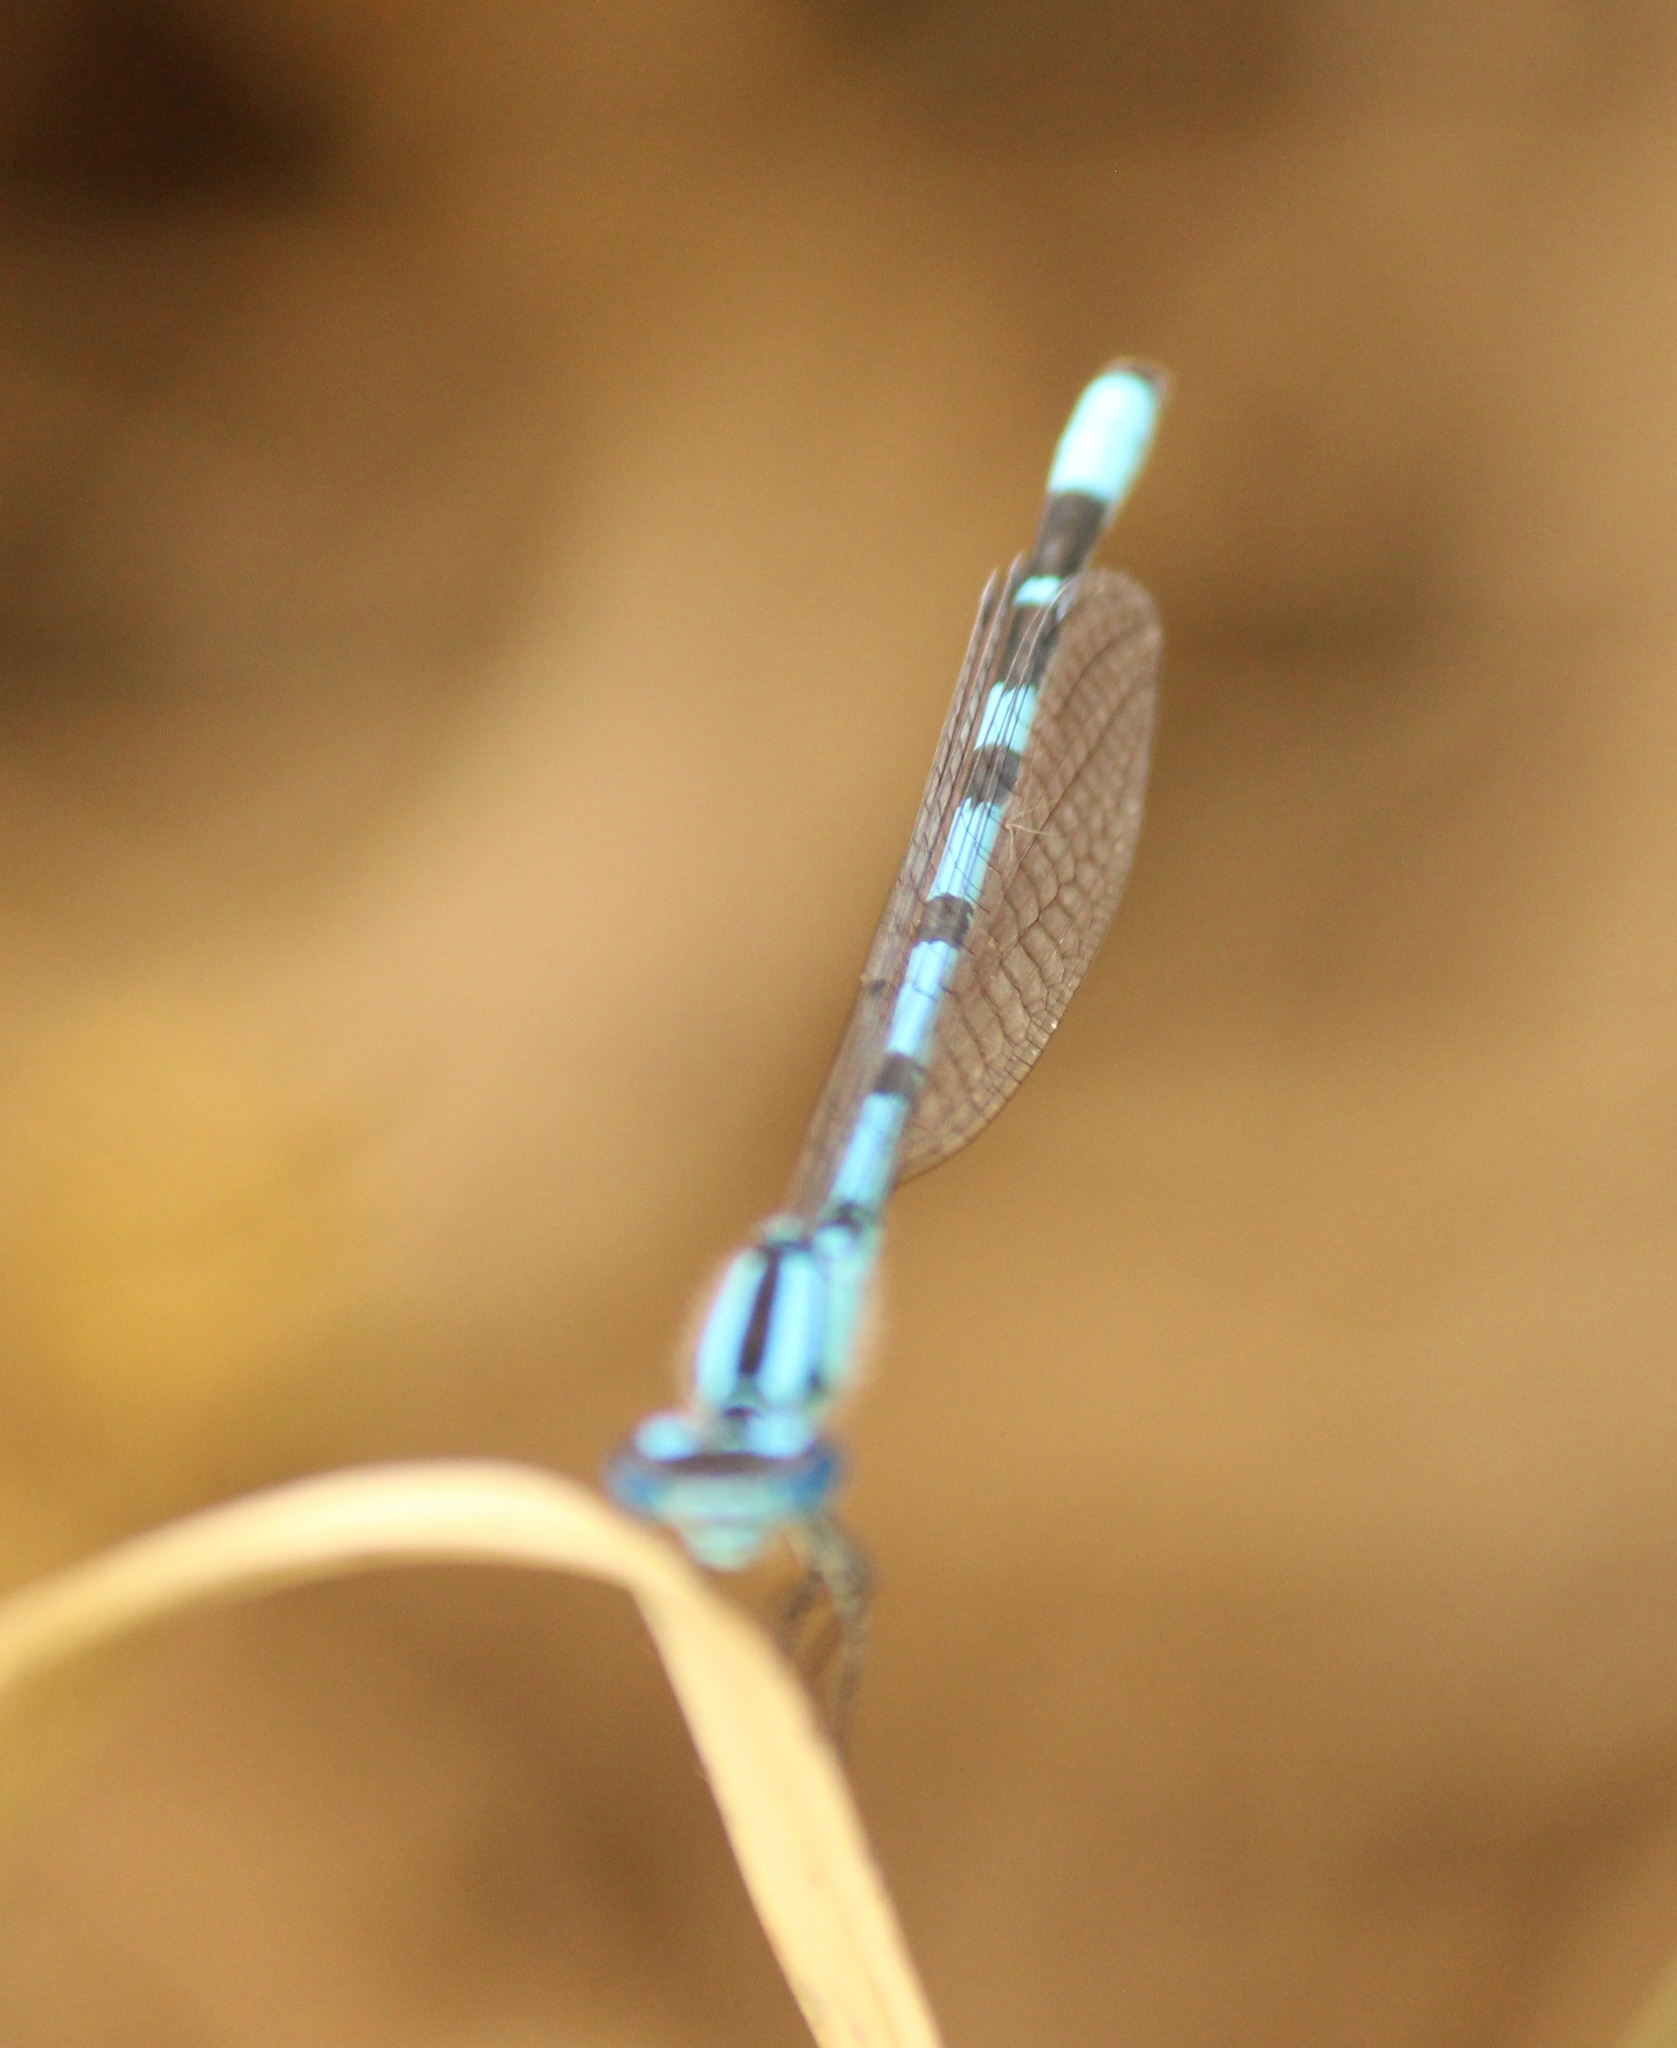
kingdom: Animalia
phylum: Arthropoda
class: Insecta
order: Odonata
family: Coenagrionidae
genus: Enallagma
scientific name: Enallagma cyathigerum
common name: Common blue damselfly
